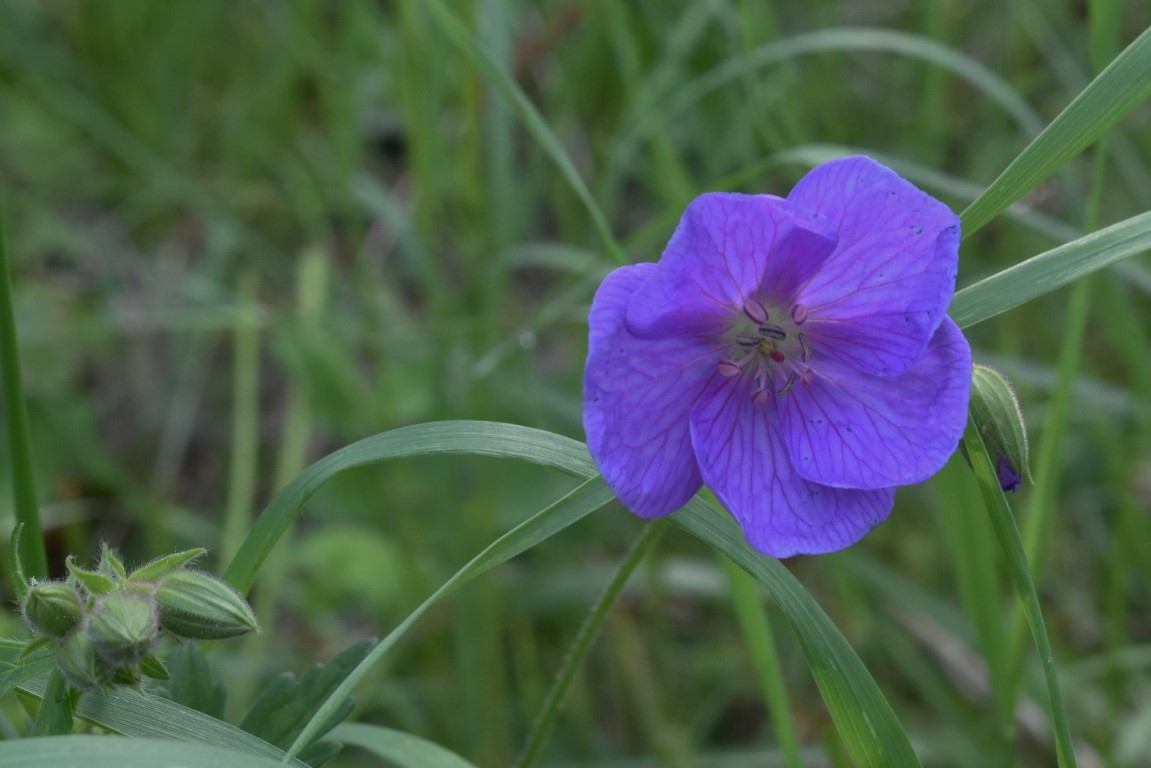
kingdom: Plantae
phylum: Tracheophyta
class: Magnoliopsida
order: Geraniales
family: Geraniaceae
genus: Geranium
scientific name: Geranium oreganum
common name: Oregon crane's-bill
